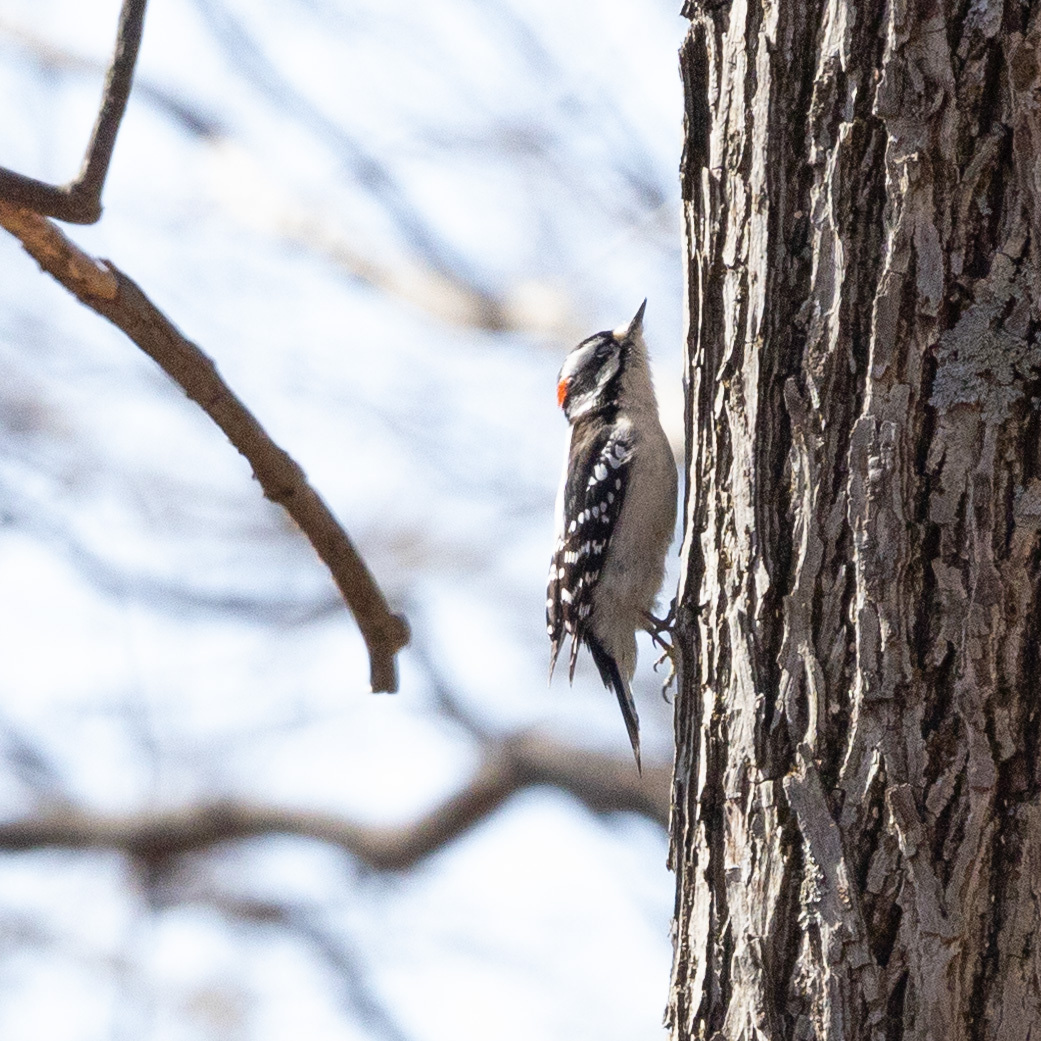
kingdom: Animalia
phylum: Chordata
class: Aves
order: Piciformes
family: Picidae
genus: Dryobates
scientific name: Dryobates pubescens
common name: Downy woodpecker
